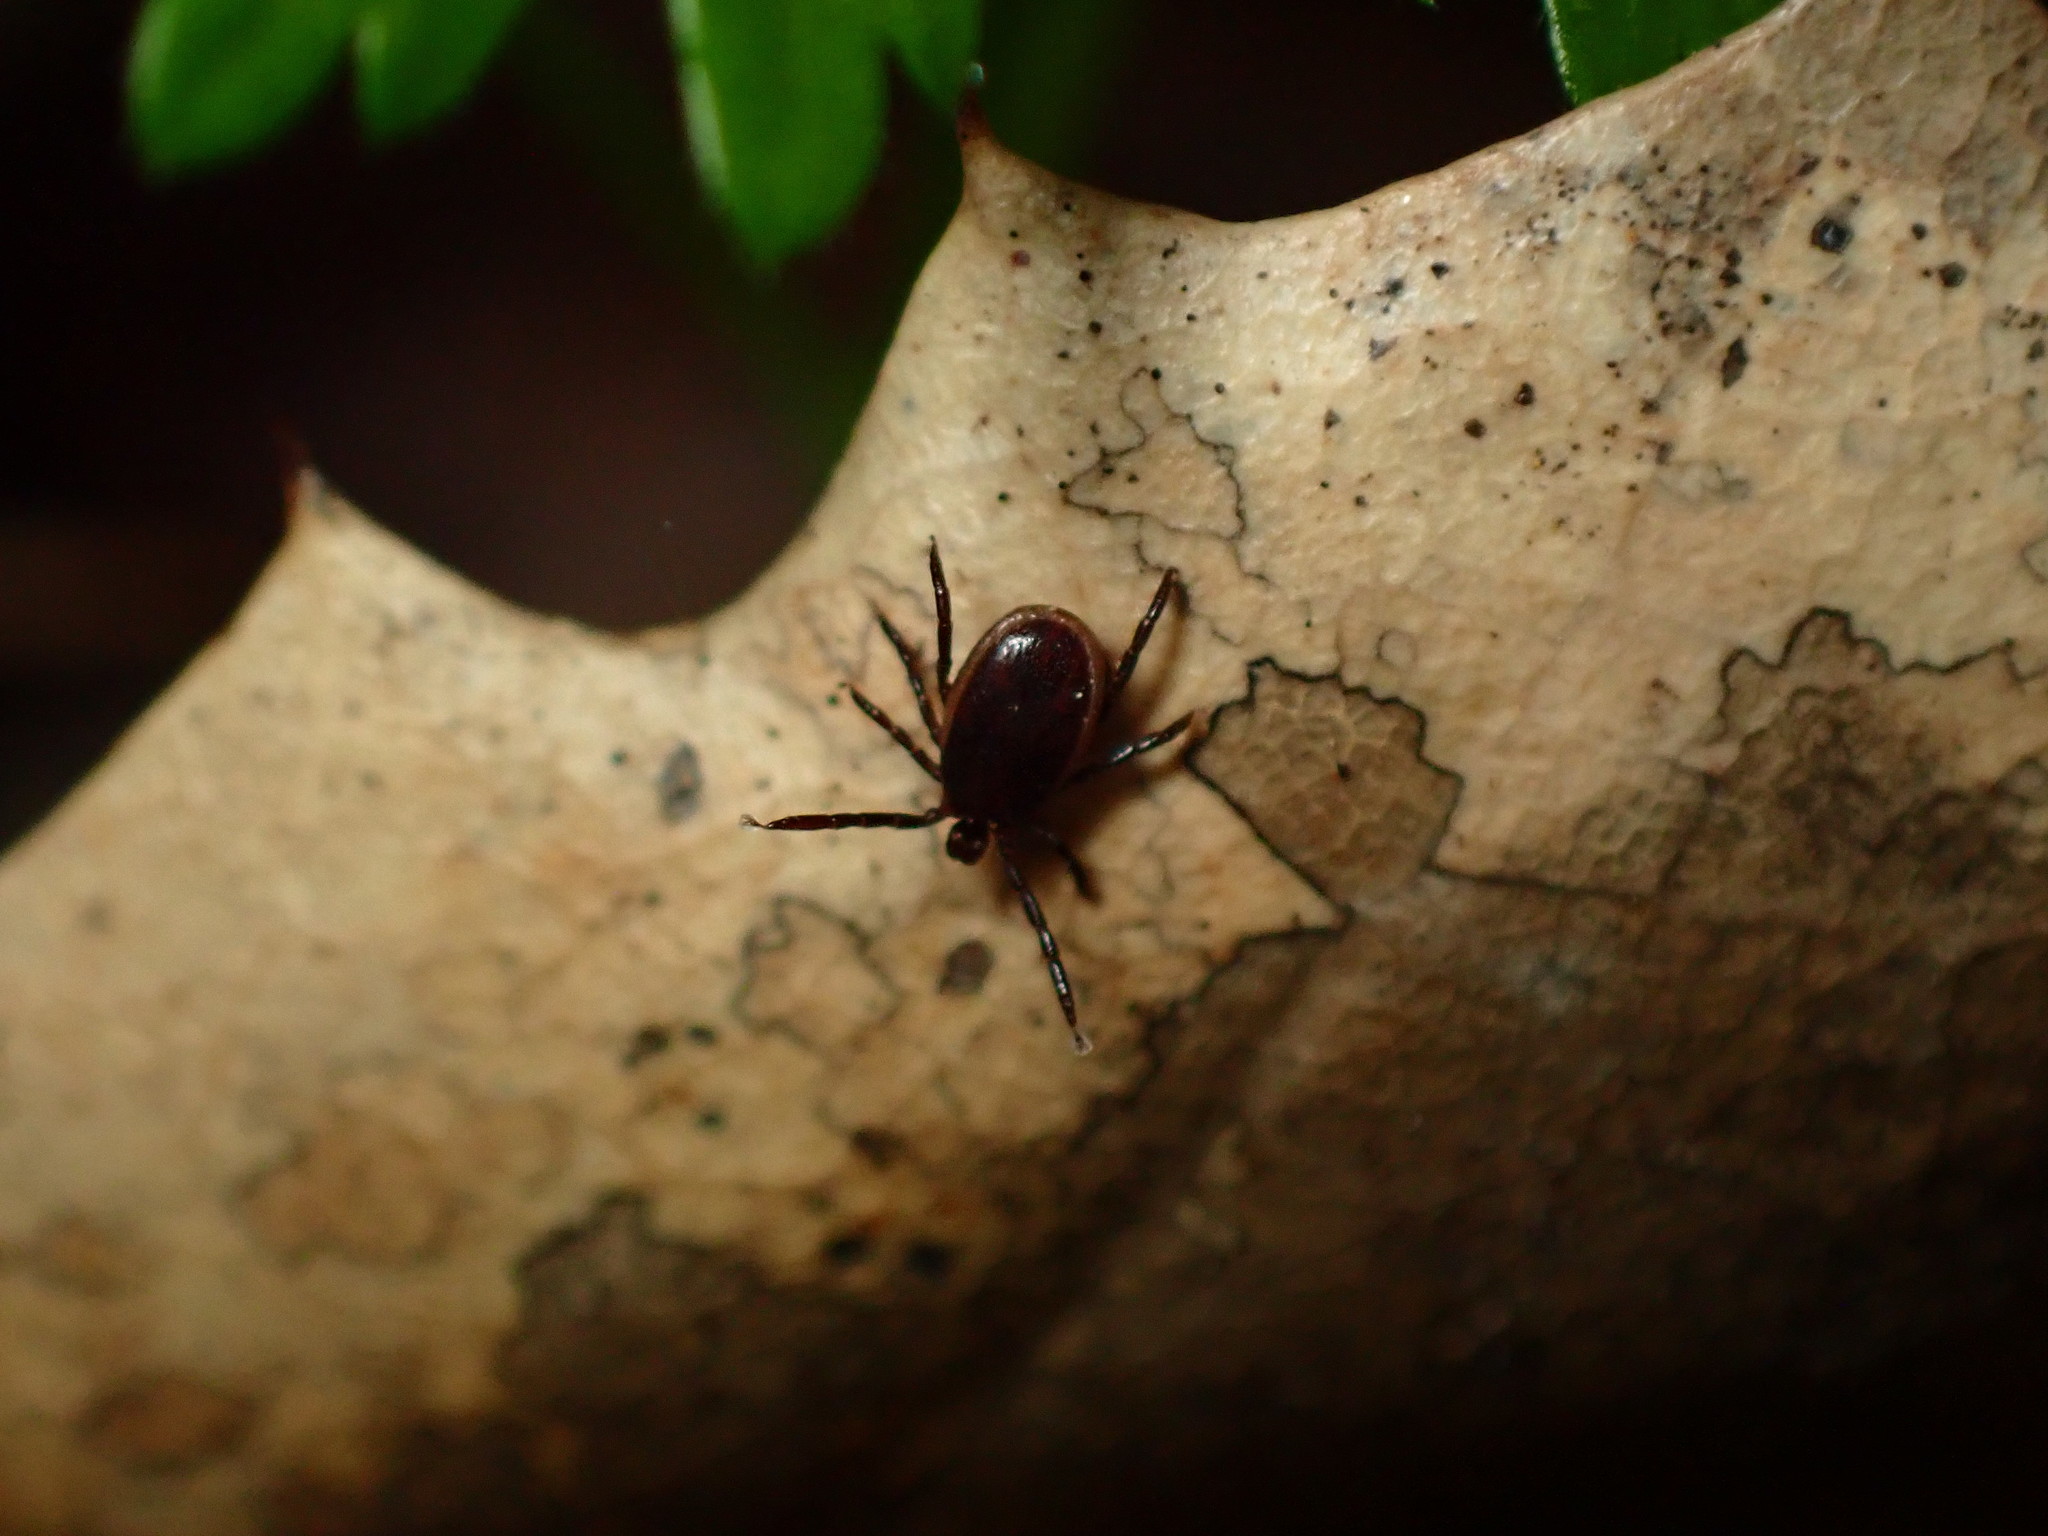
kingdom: Animalia
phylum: Arthropoda
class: Arachnida
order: Ixodida
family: Ixodidae
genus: Ixodes
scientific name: Ixodes pacificus
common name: California black-legged tick
